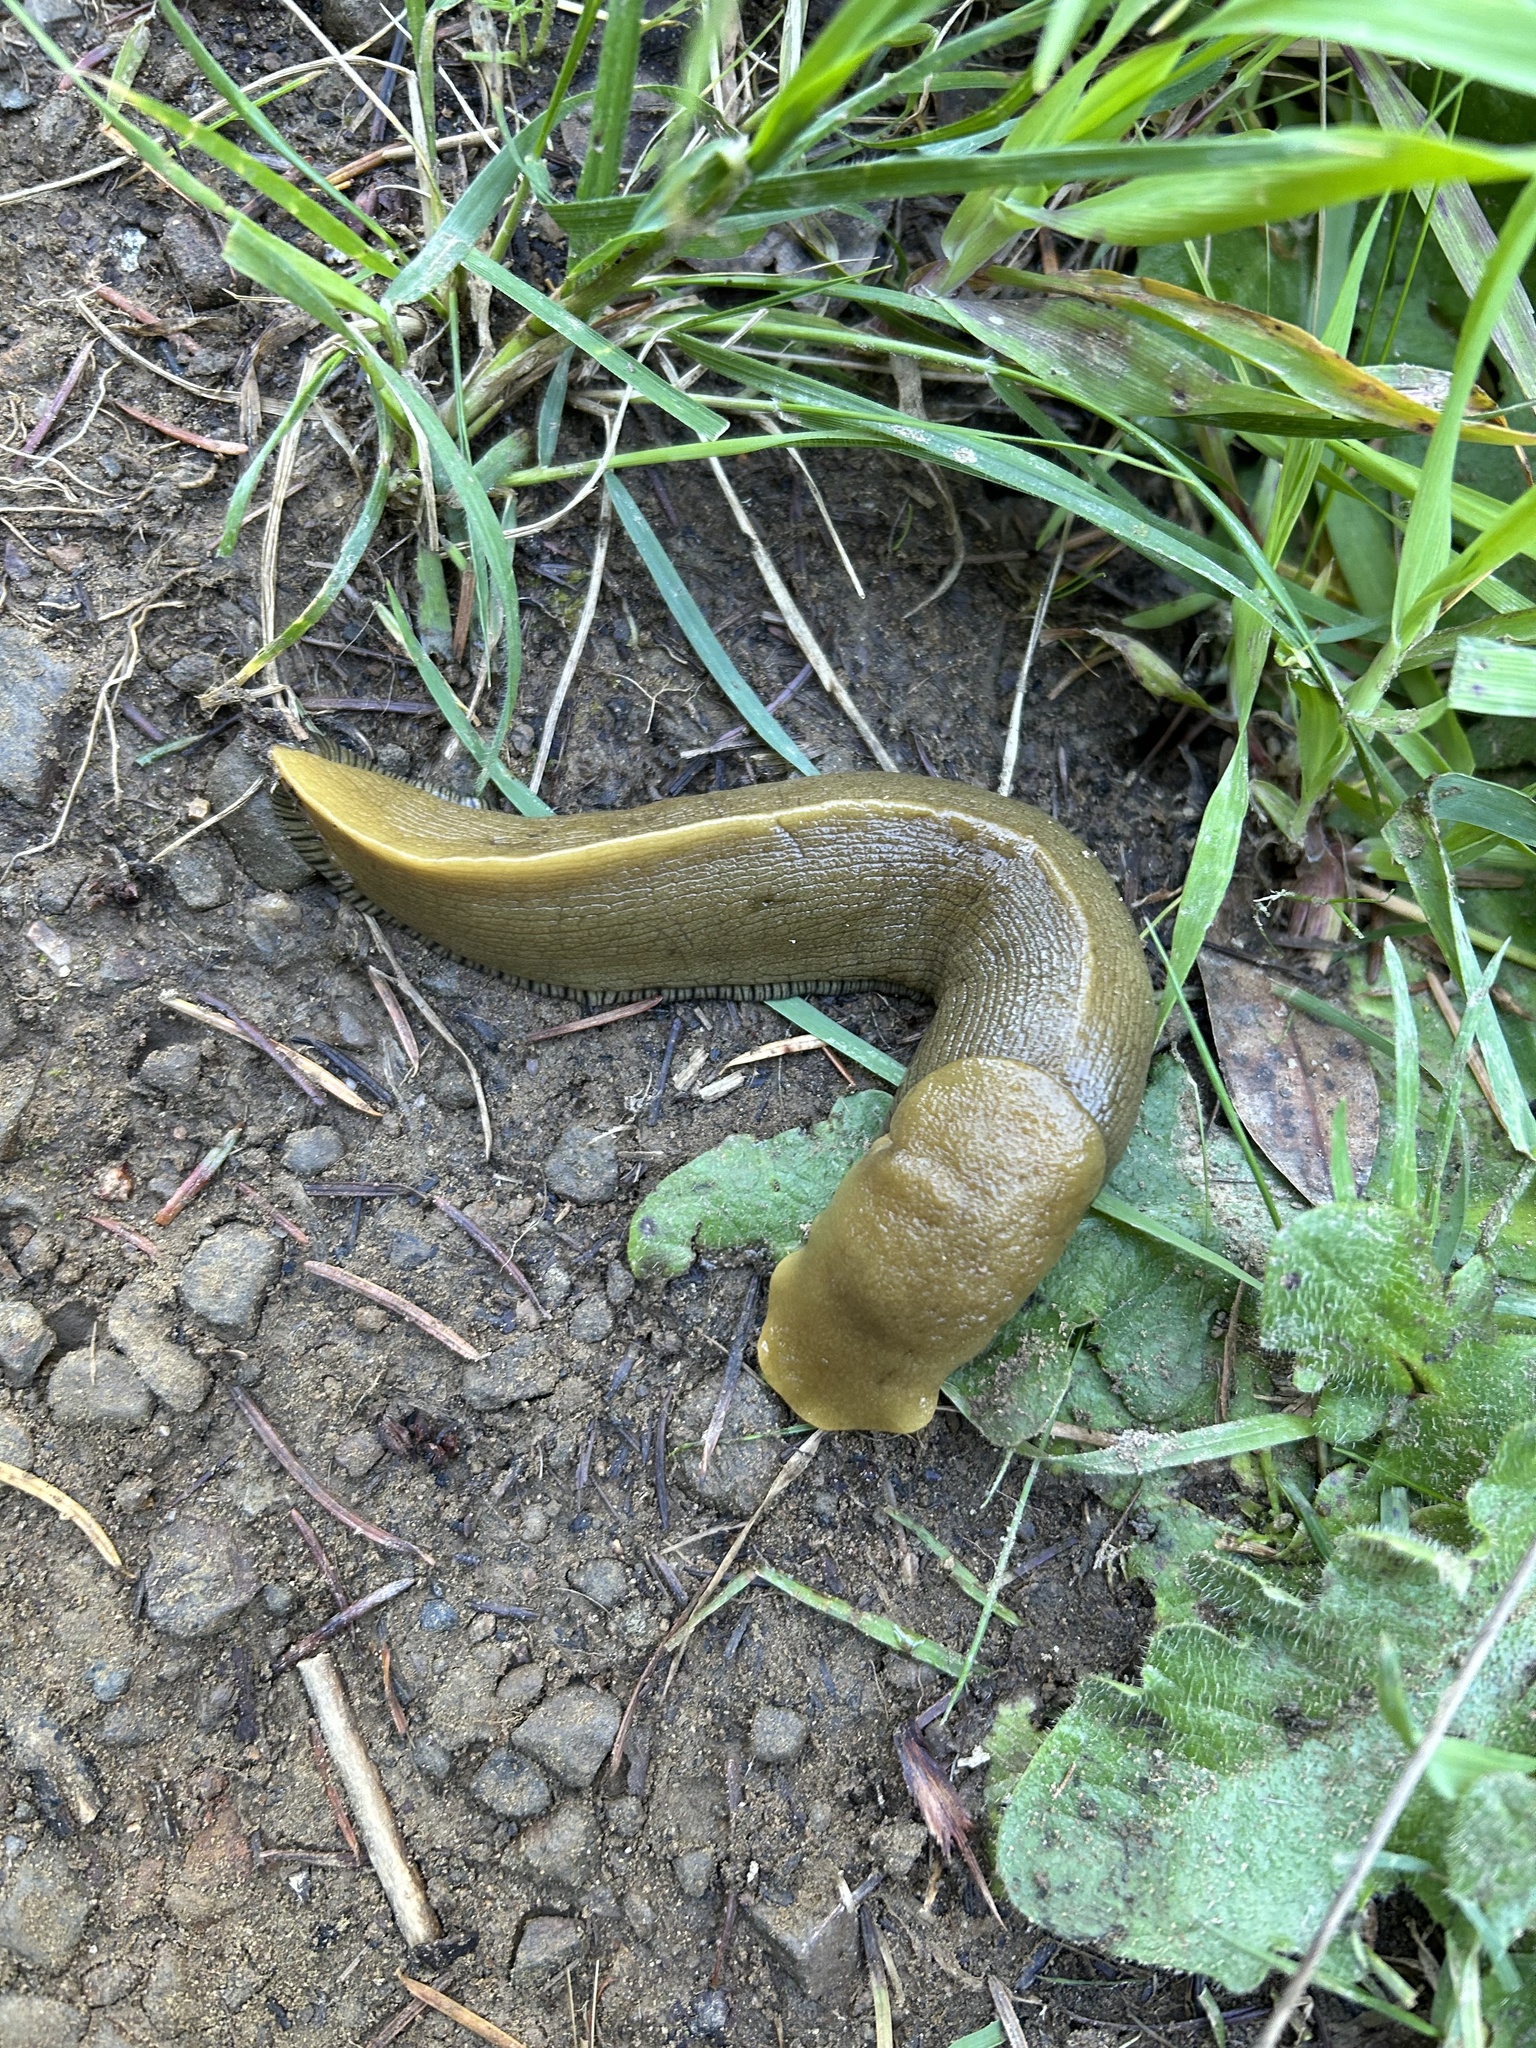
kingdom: Animalia
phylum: Mollusca
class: Gastropoda
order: Stylommatophora
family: Ariolimacidae
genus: Ariolimax
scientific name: Ariolimax buttoni
